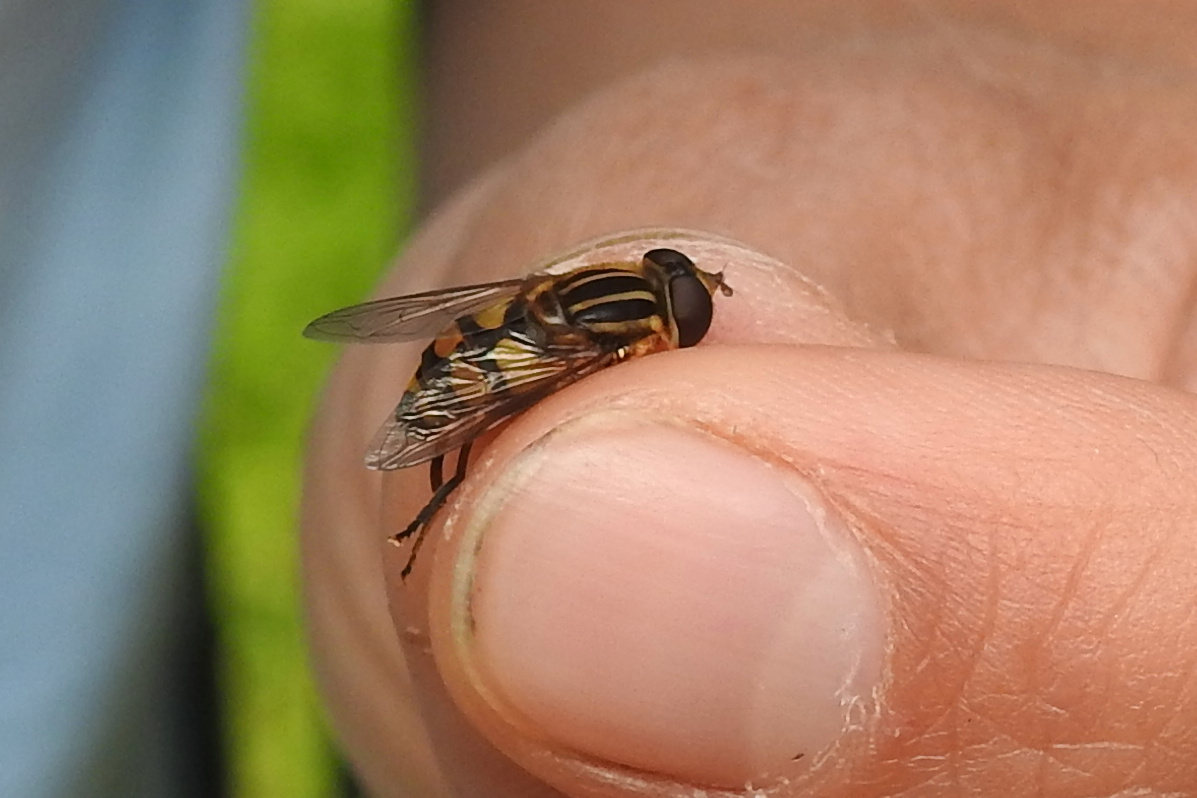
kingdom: Animalia
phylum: Arthropoda
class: Insecta
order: Diptera
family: Syrphidae
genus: Helophilus
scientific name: Helophilus fasciatus
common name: Narrow-headed marsh fly
